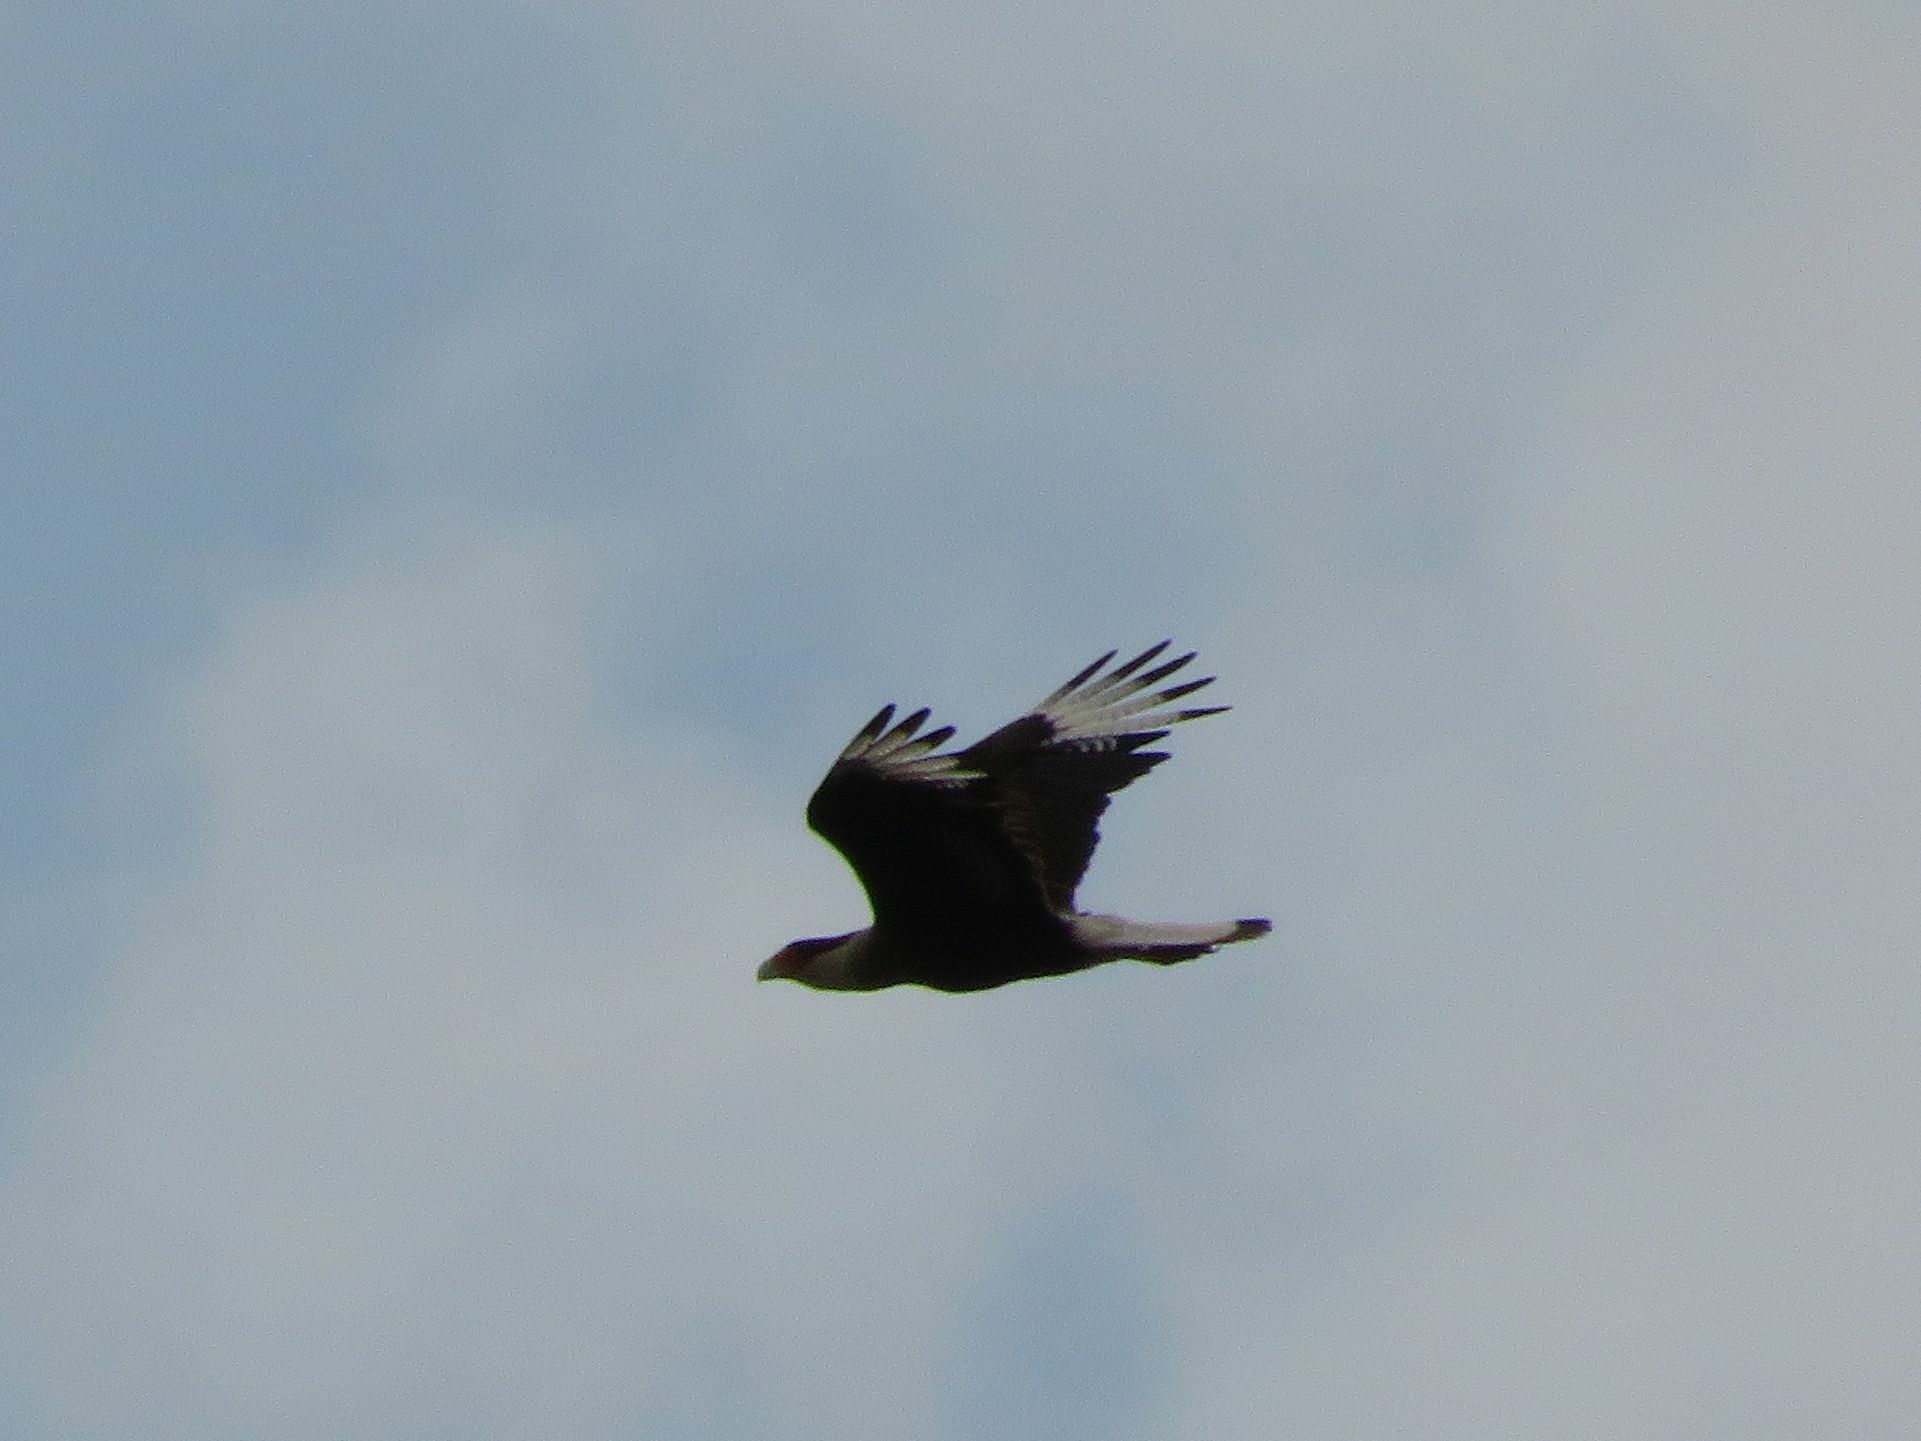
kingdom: Animalia
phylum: Chordata
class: Aves
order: Falconiformes
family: Falconidae
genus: Caracara
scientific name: Caracara plancus
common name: Southern caracara
